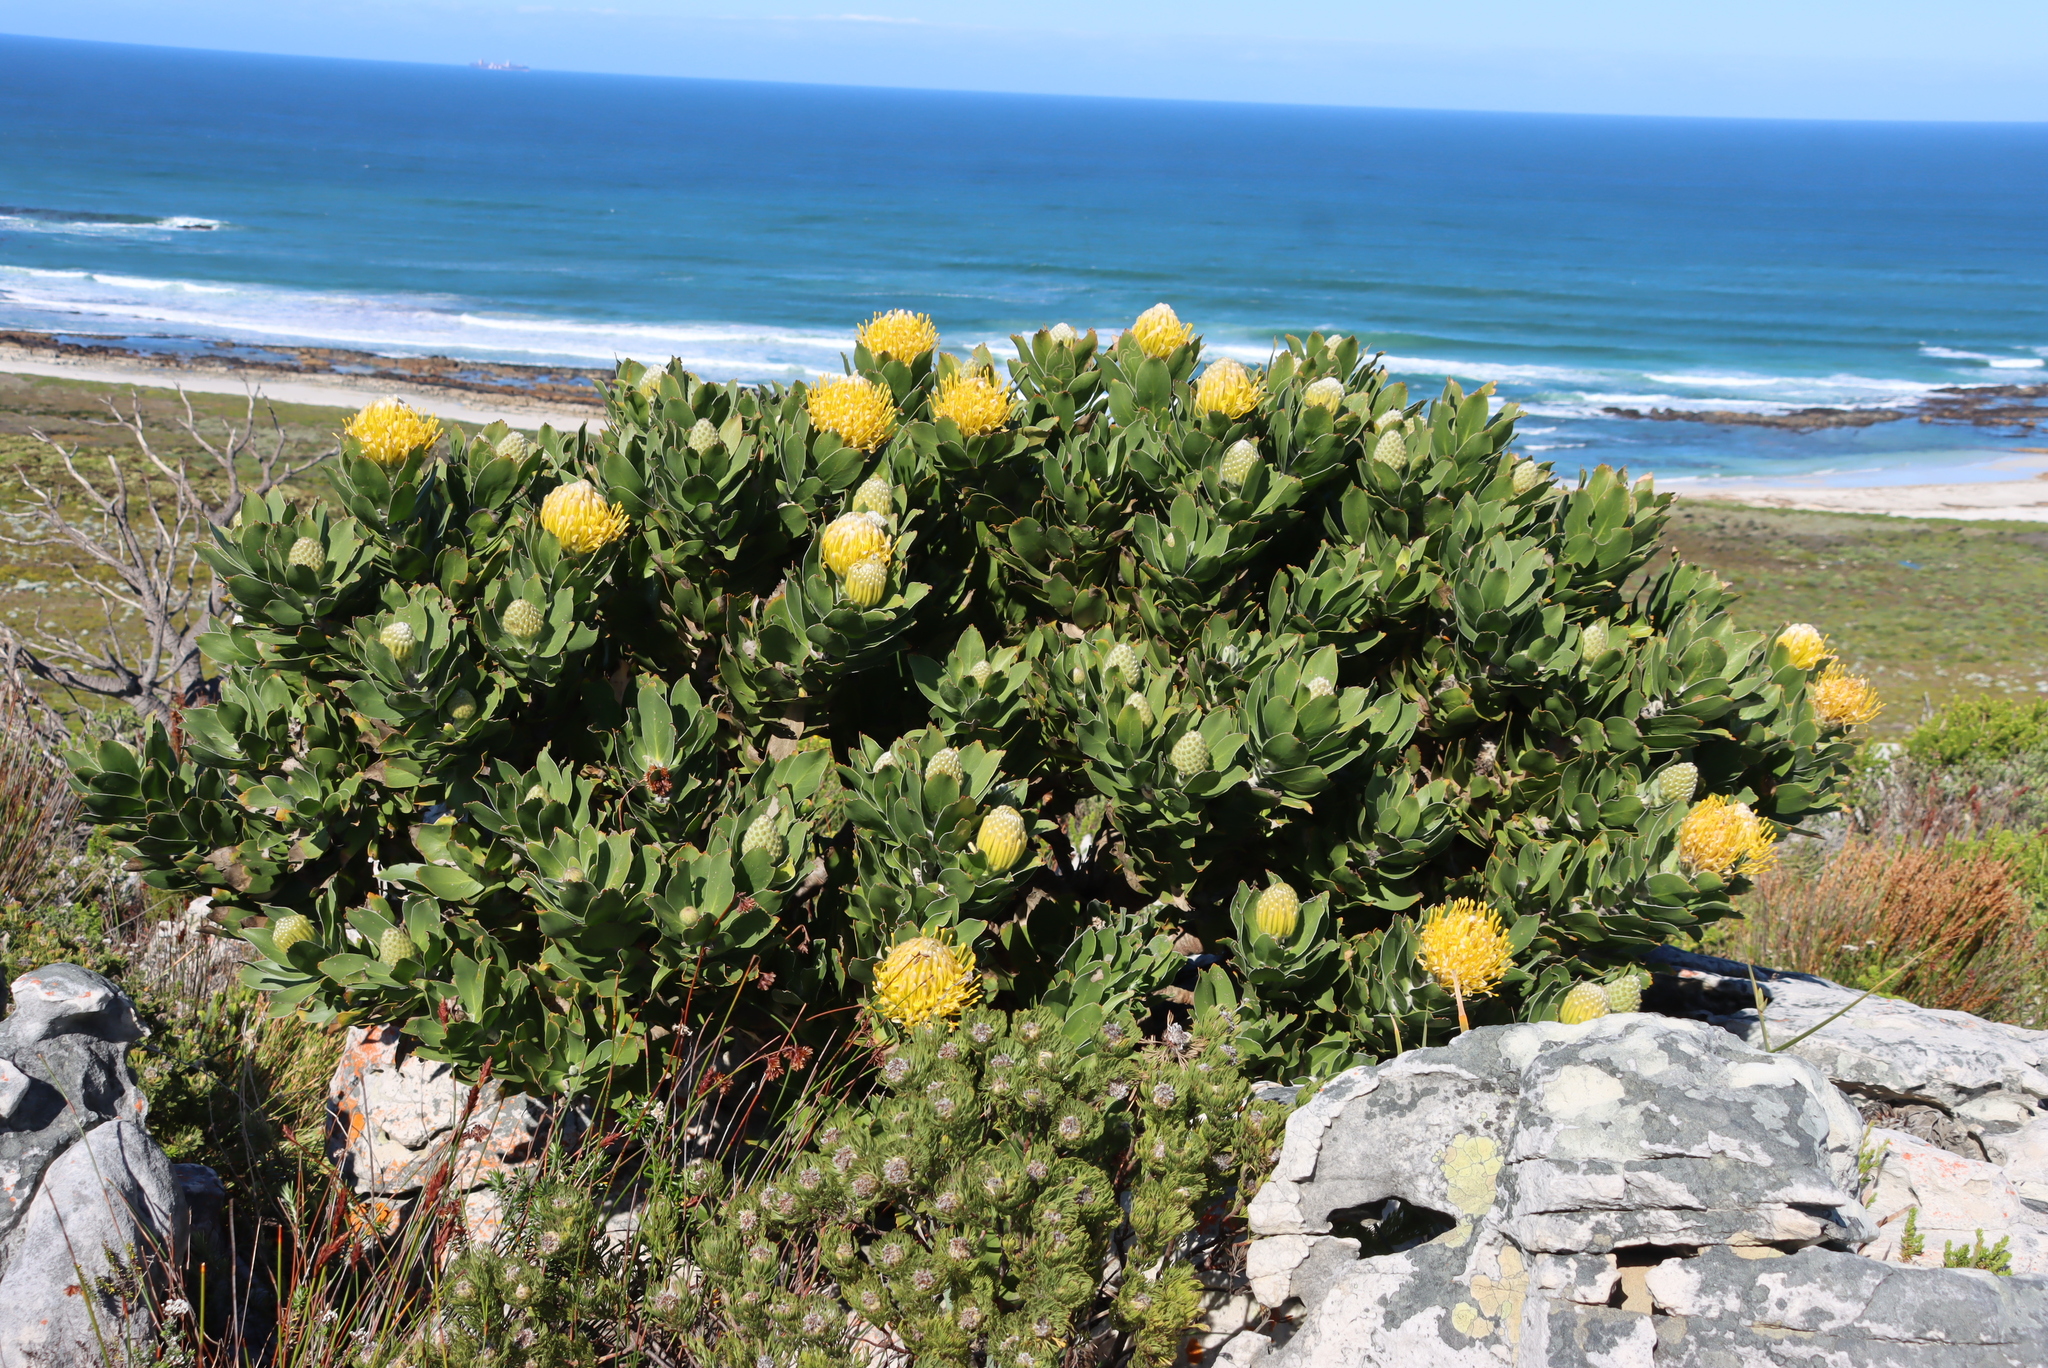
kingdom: Plantae
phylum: Tracheophyta
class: Magnoliopsida
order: Proteales
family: Proteaceae
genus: Leucospermum
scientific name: Leucospermum conocarpodendron
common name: Tree pincushion
